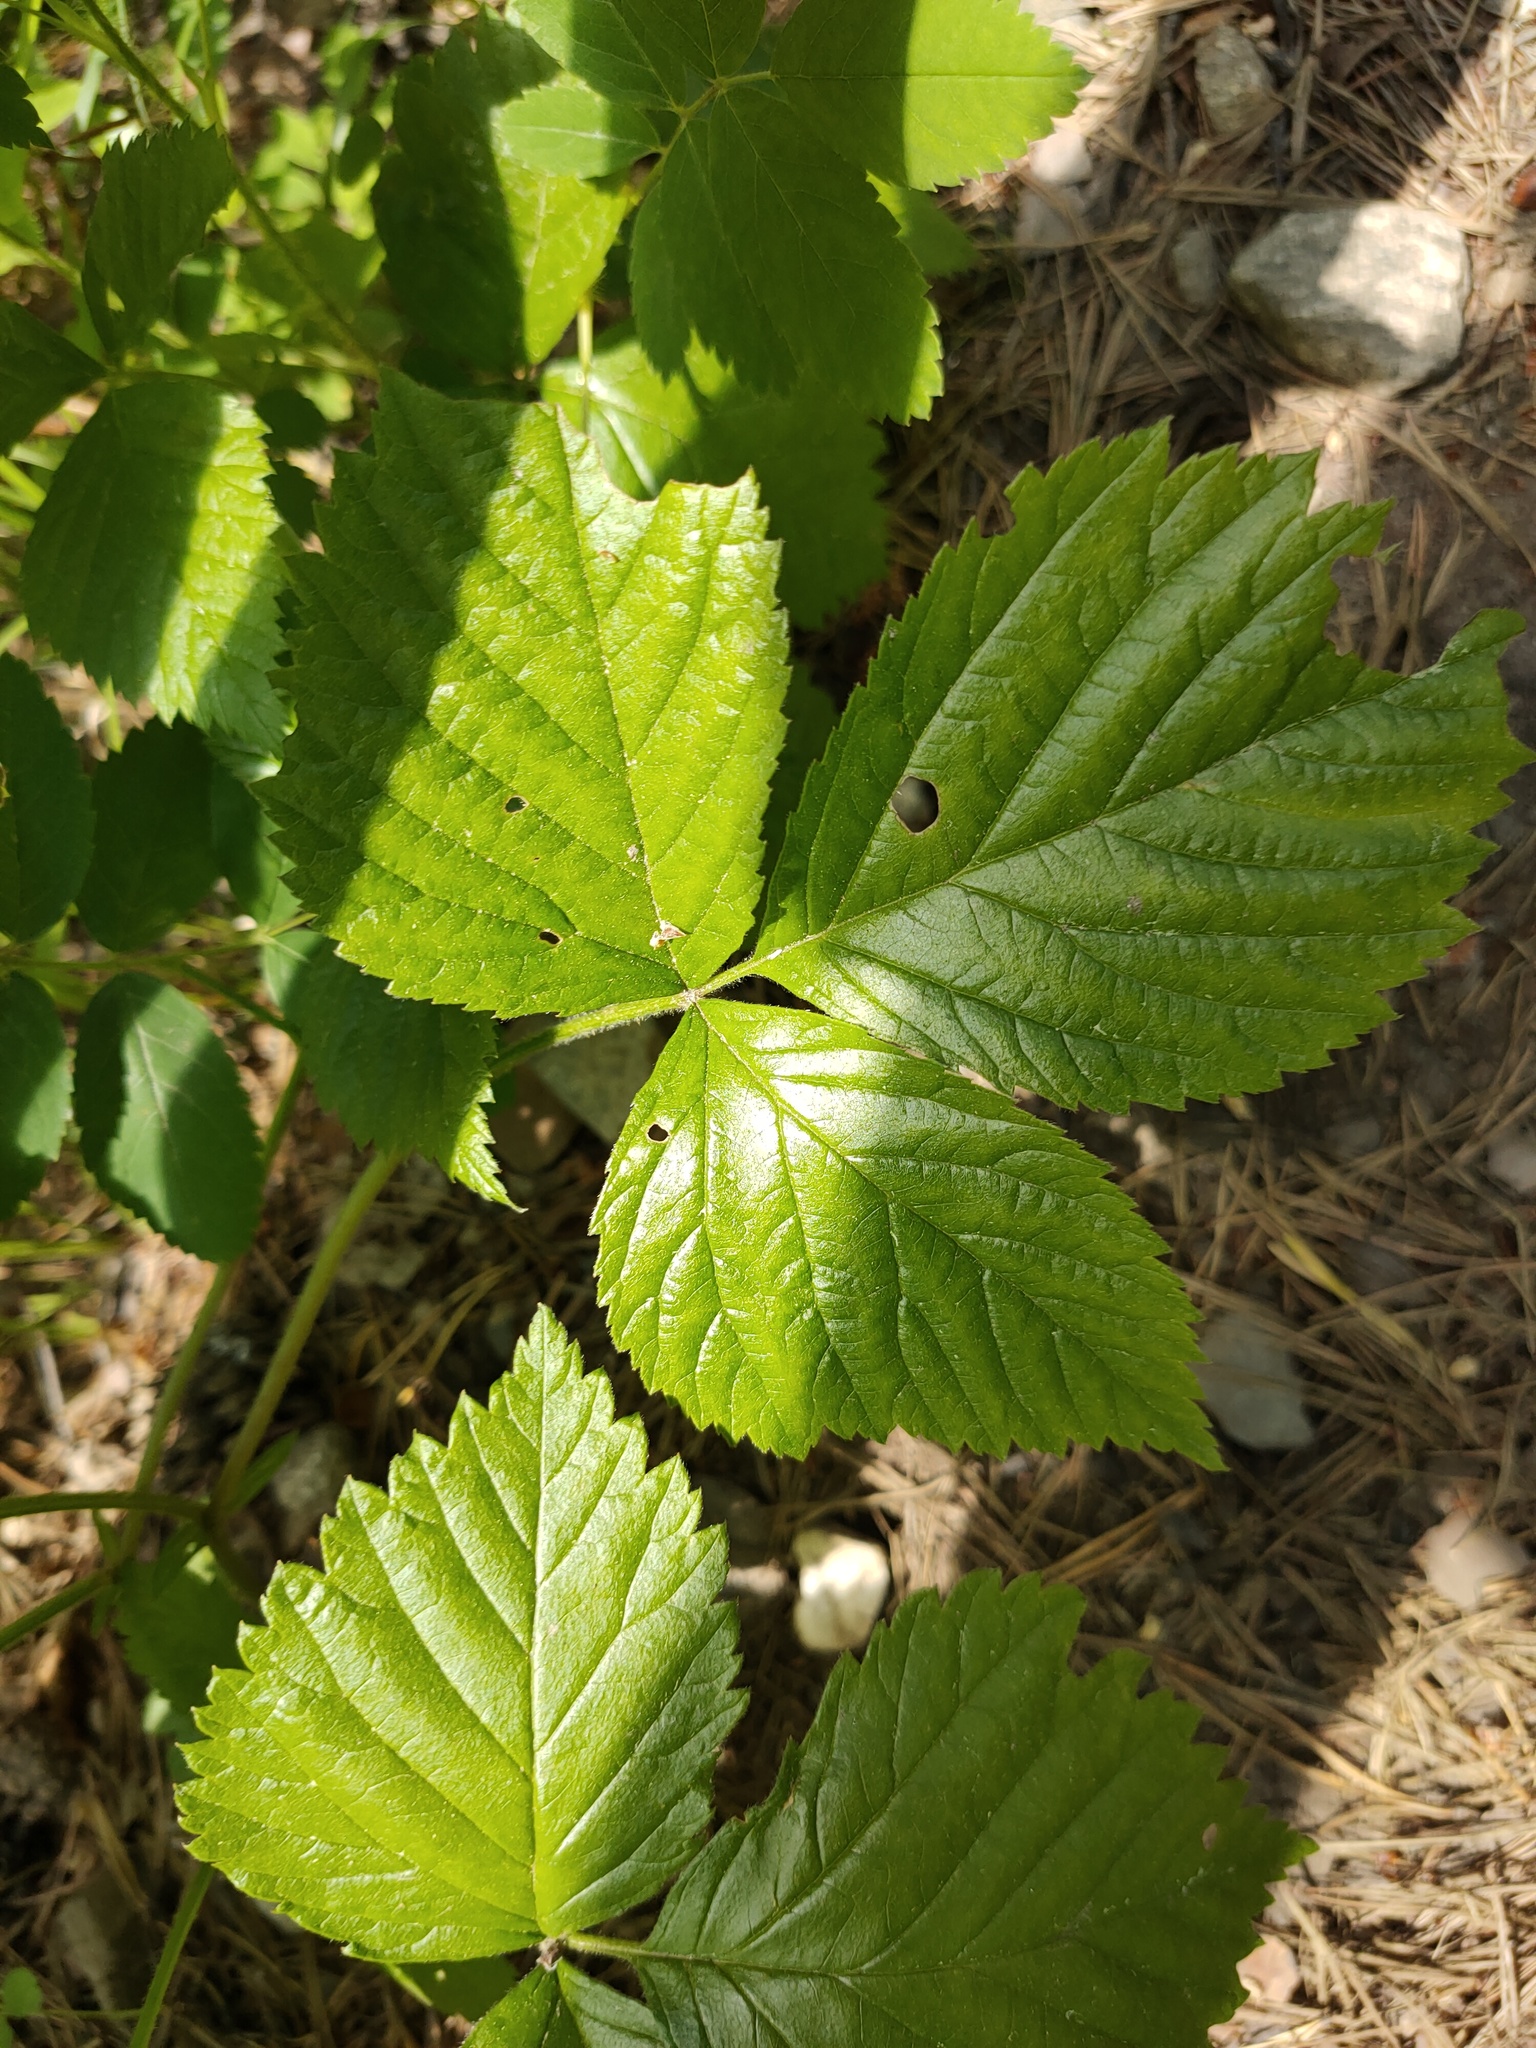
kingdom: Plantae
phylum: Tracheophyta
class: Magnoliopsida
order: Rosales
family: Rosaceae
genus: Rubus
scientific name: Rubus saxatilis
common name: Stone bramble
